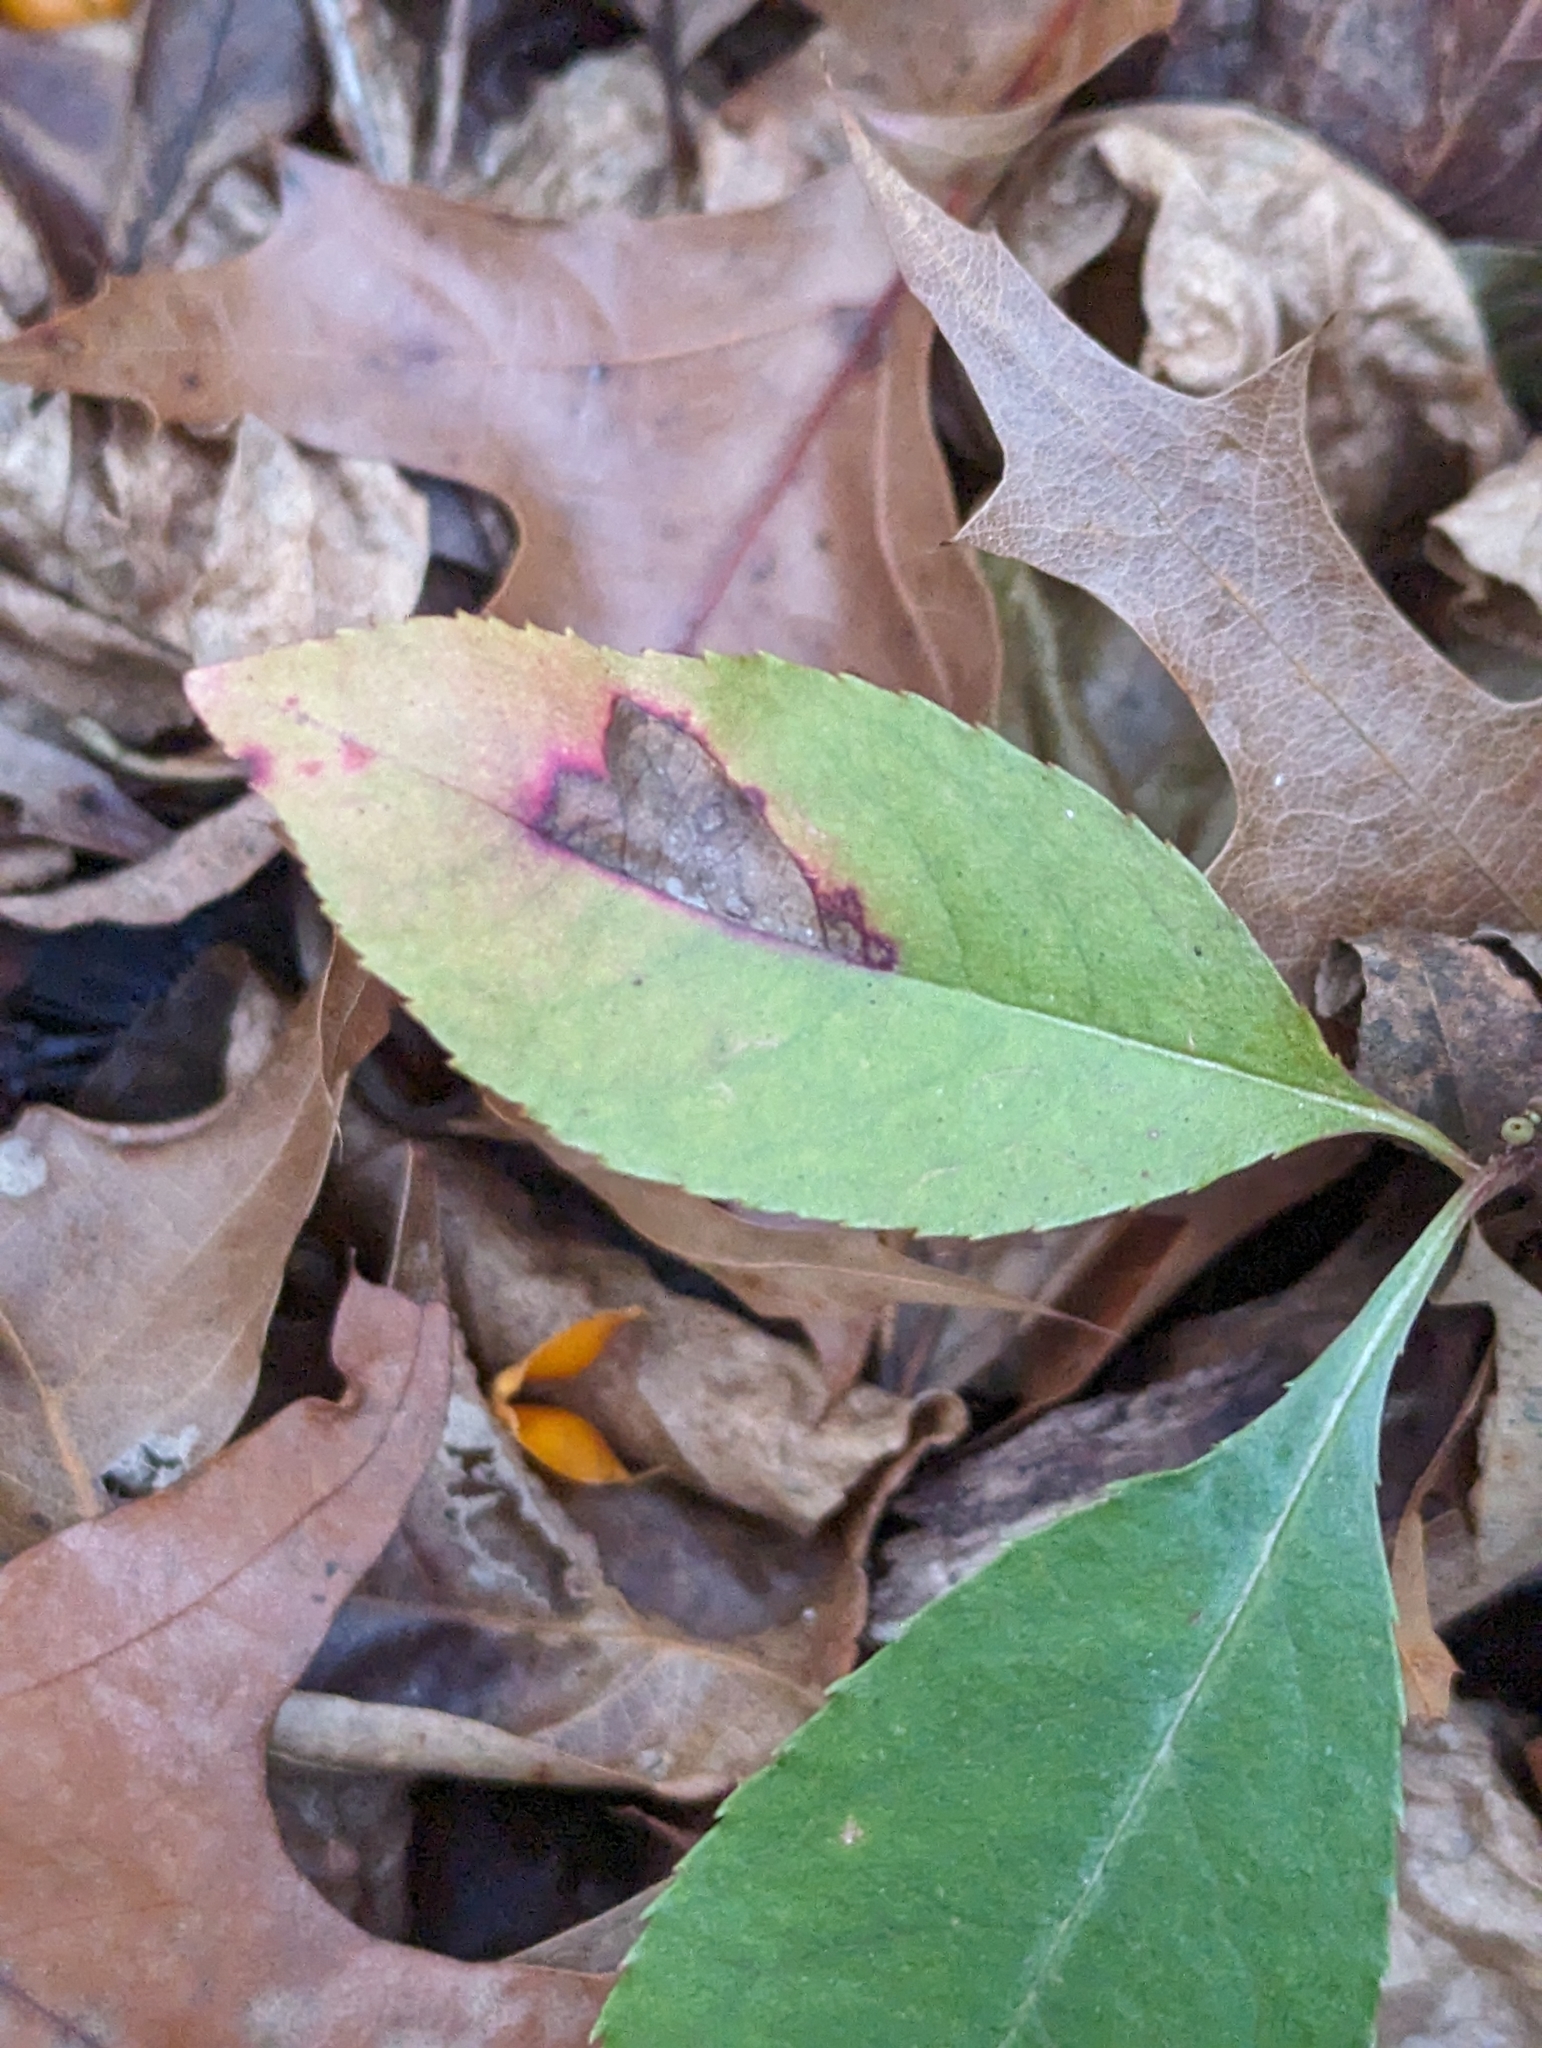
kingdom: Plantae
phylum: Tracheophyta
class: Magnoliopsida
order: Rosales
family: Rosaceae
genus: Prunus
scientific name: Prunus serotina
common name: Black cherry
